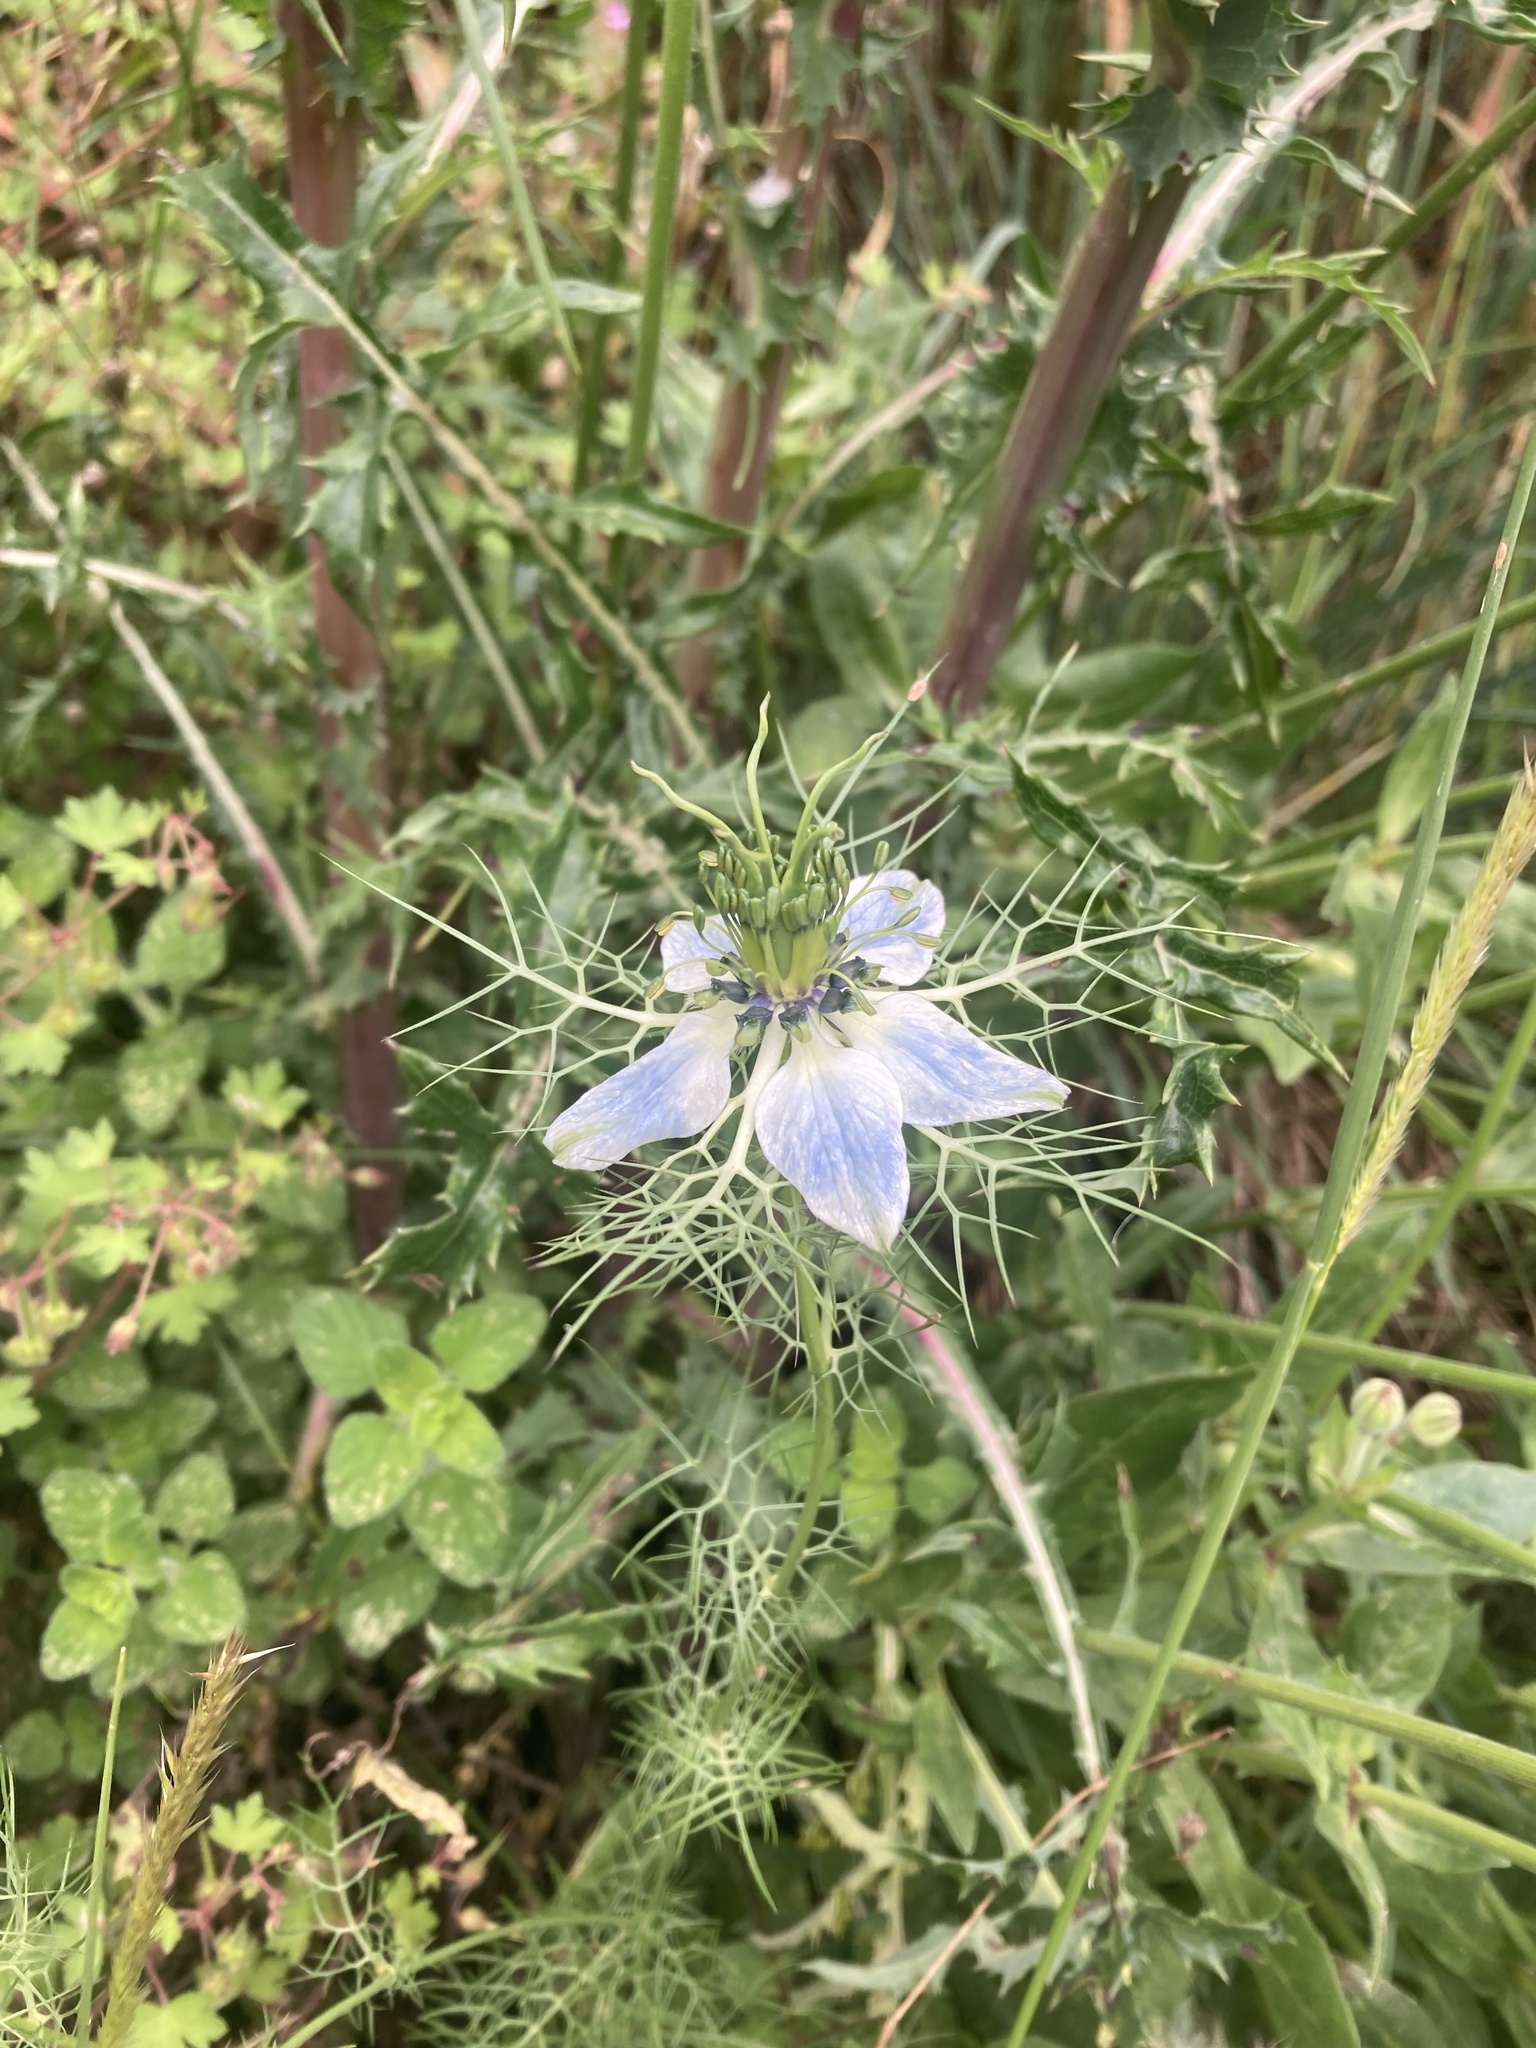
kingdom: Plantae
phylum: Tracheophyta
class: Magnoliopsida
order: Ranunculales
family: Ranunculaceae
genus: Nigella
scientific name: Nigella damascena
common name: Love-in-a-mist
